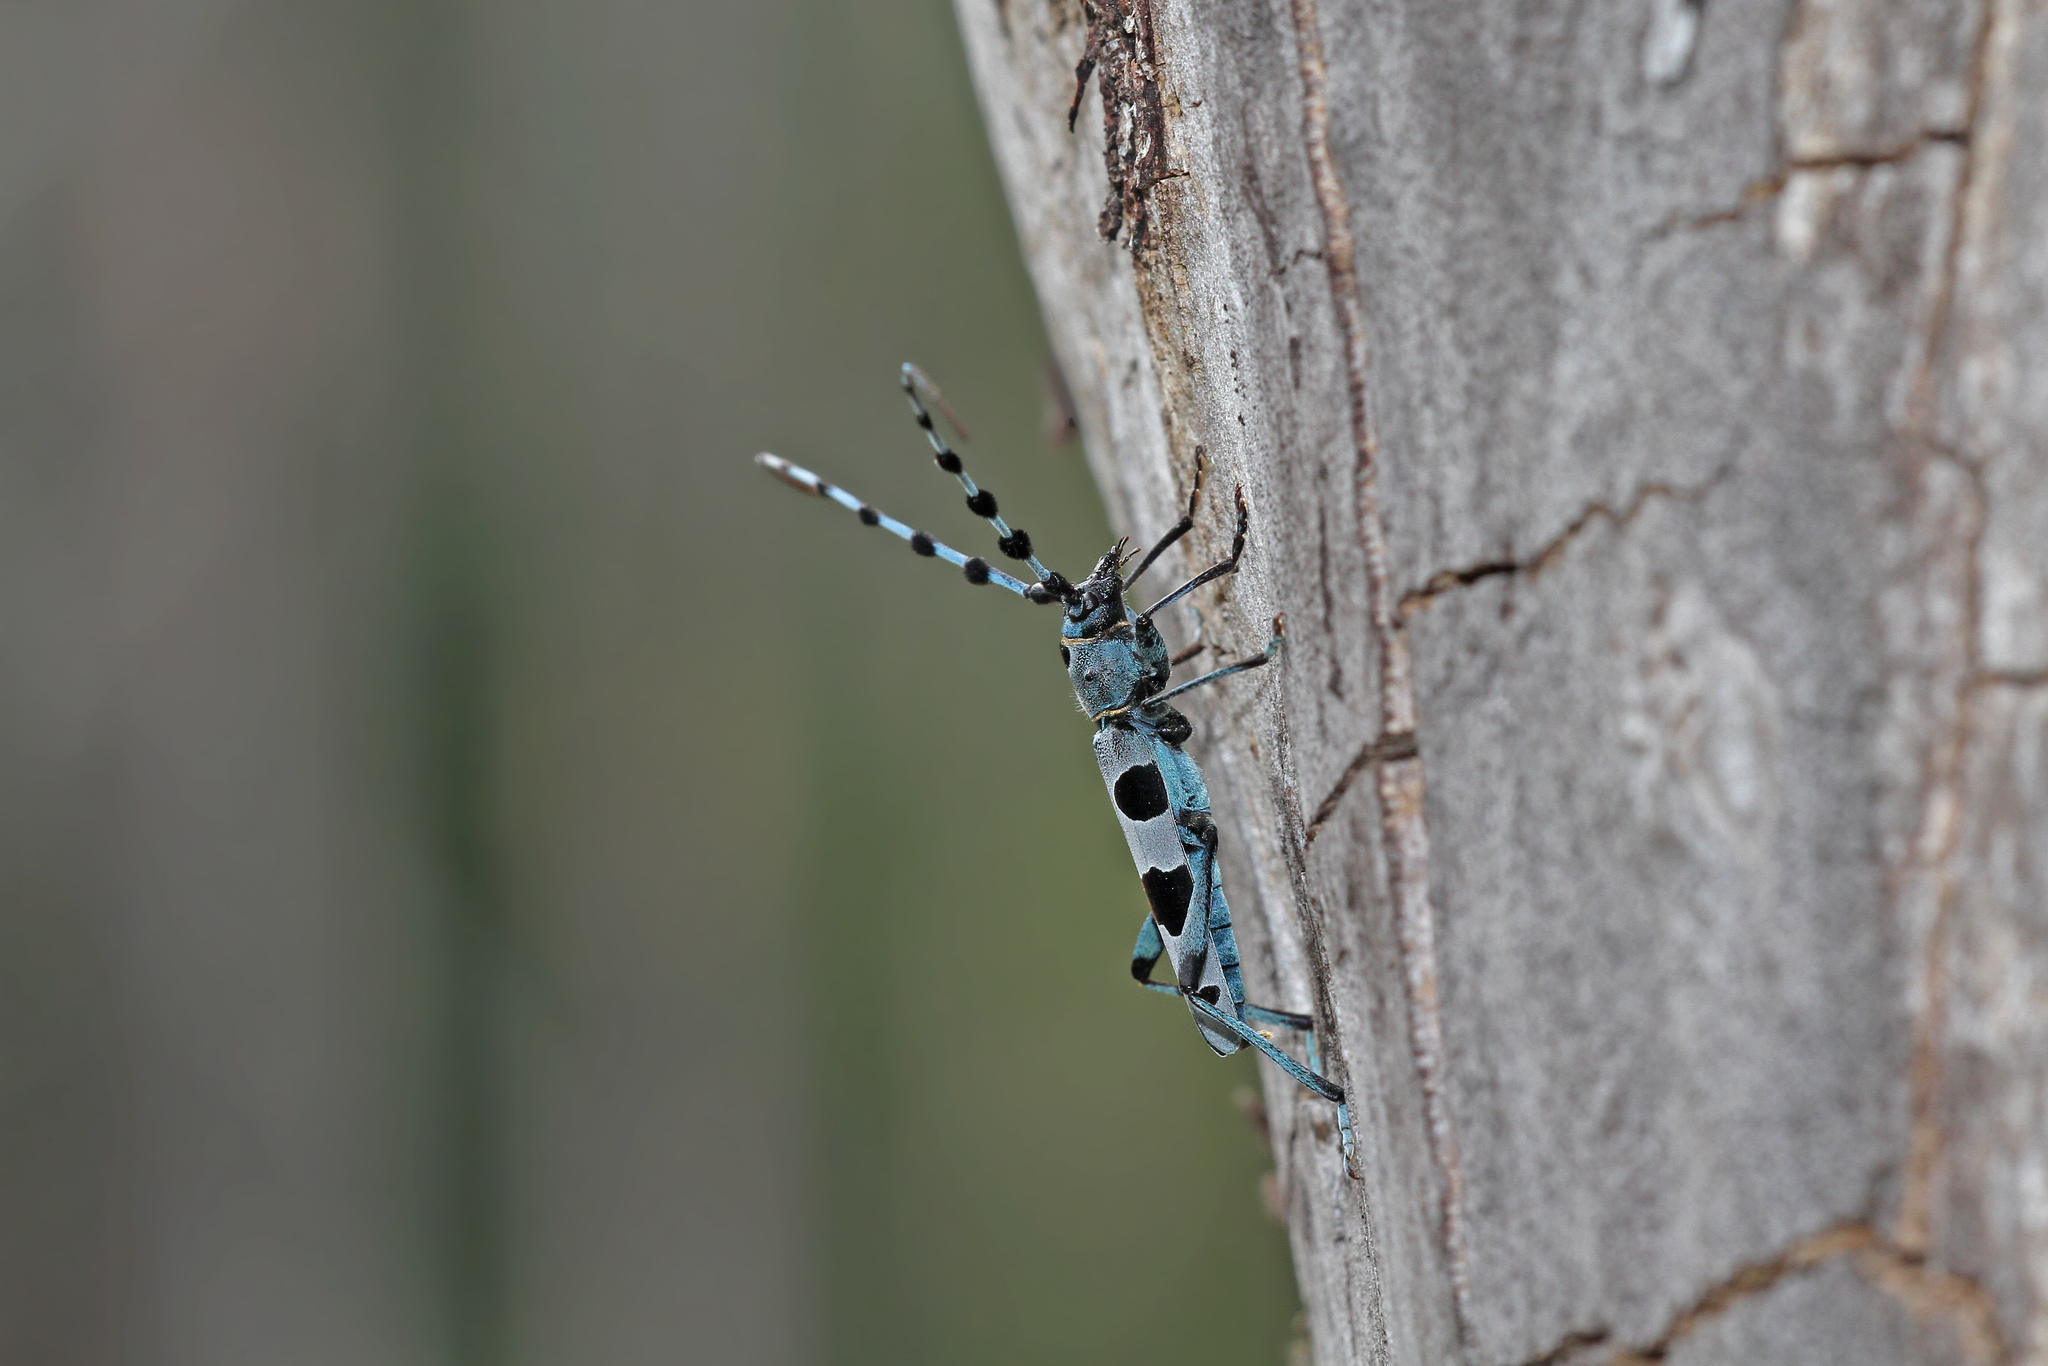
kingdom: Animalia
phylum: Arthropoda
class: Insecta
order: Coleoptera
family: Cerambycidae
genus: Rosalia
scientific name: Rosalia alpina
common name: Rosalia longicorn
